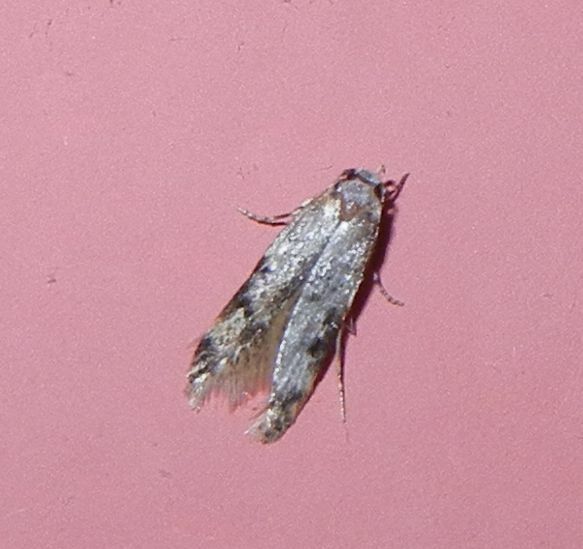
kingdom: Animalia
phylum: Arthropoda
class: Insecta
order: Lepidoptera
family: Oecophoridae
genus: Endrosis
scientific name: Endrosis sarcitrella
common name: White-shouldered house moth
